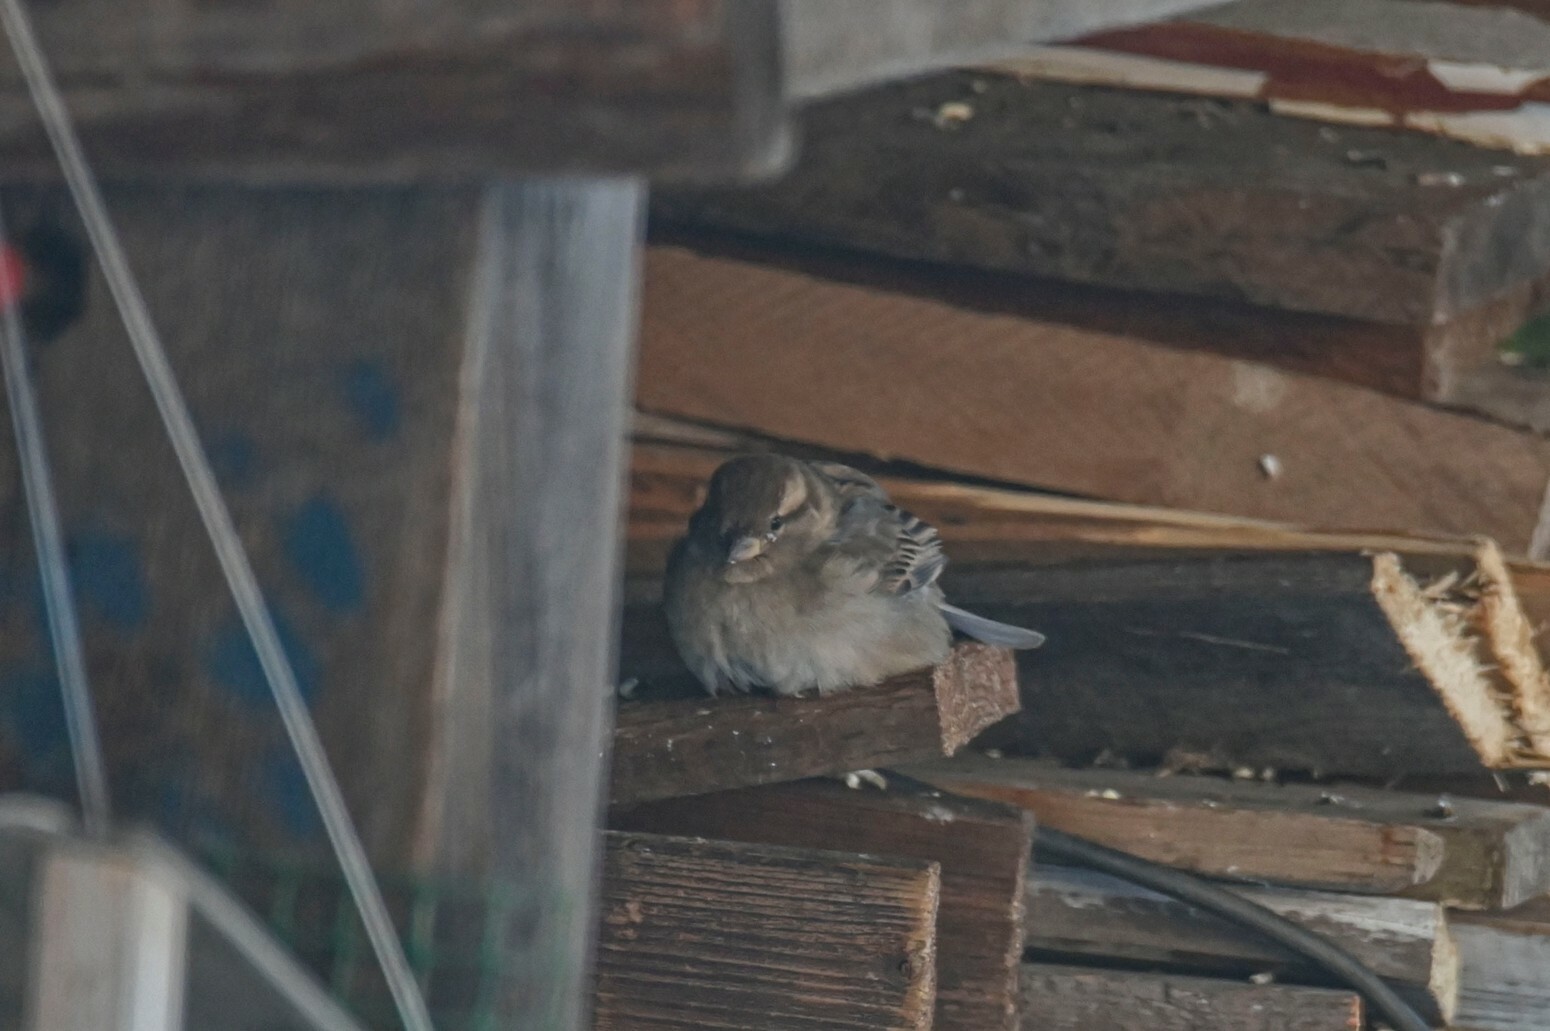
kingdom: Animalia
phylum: Chordata
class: Aves
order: Passeriformes
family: Passeridae
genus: Passer
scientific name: Passer domesticus
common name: House sparrow
